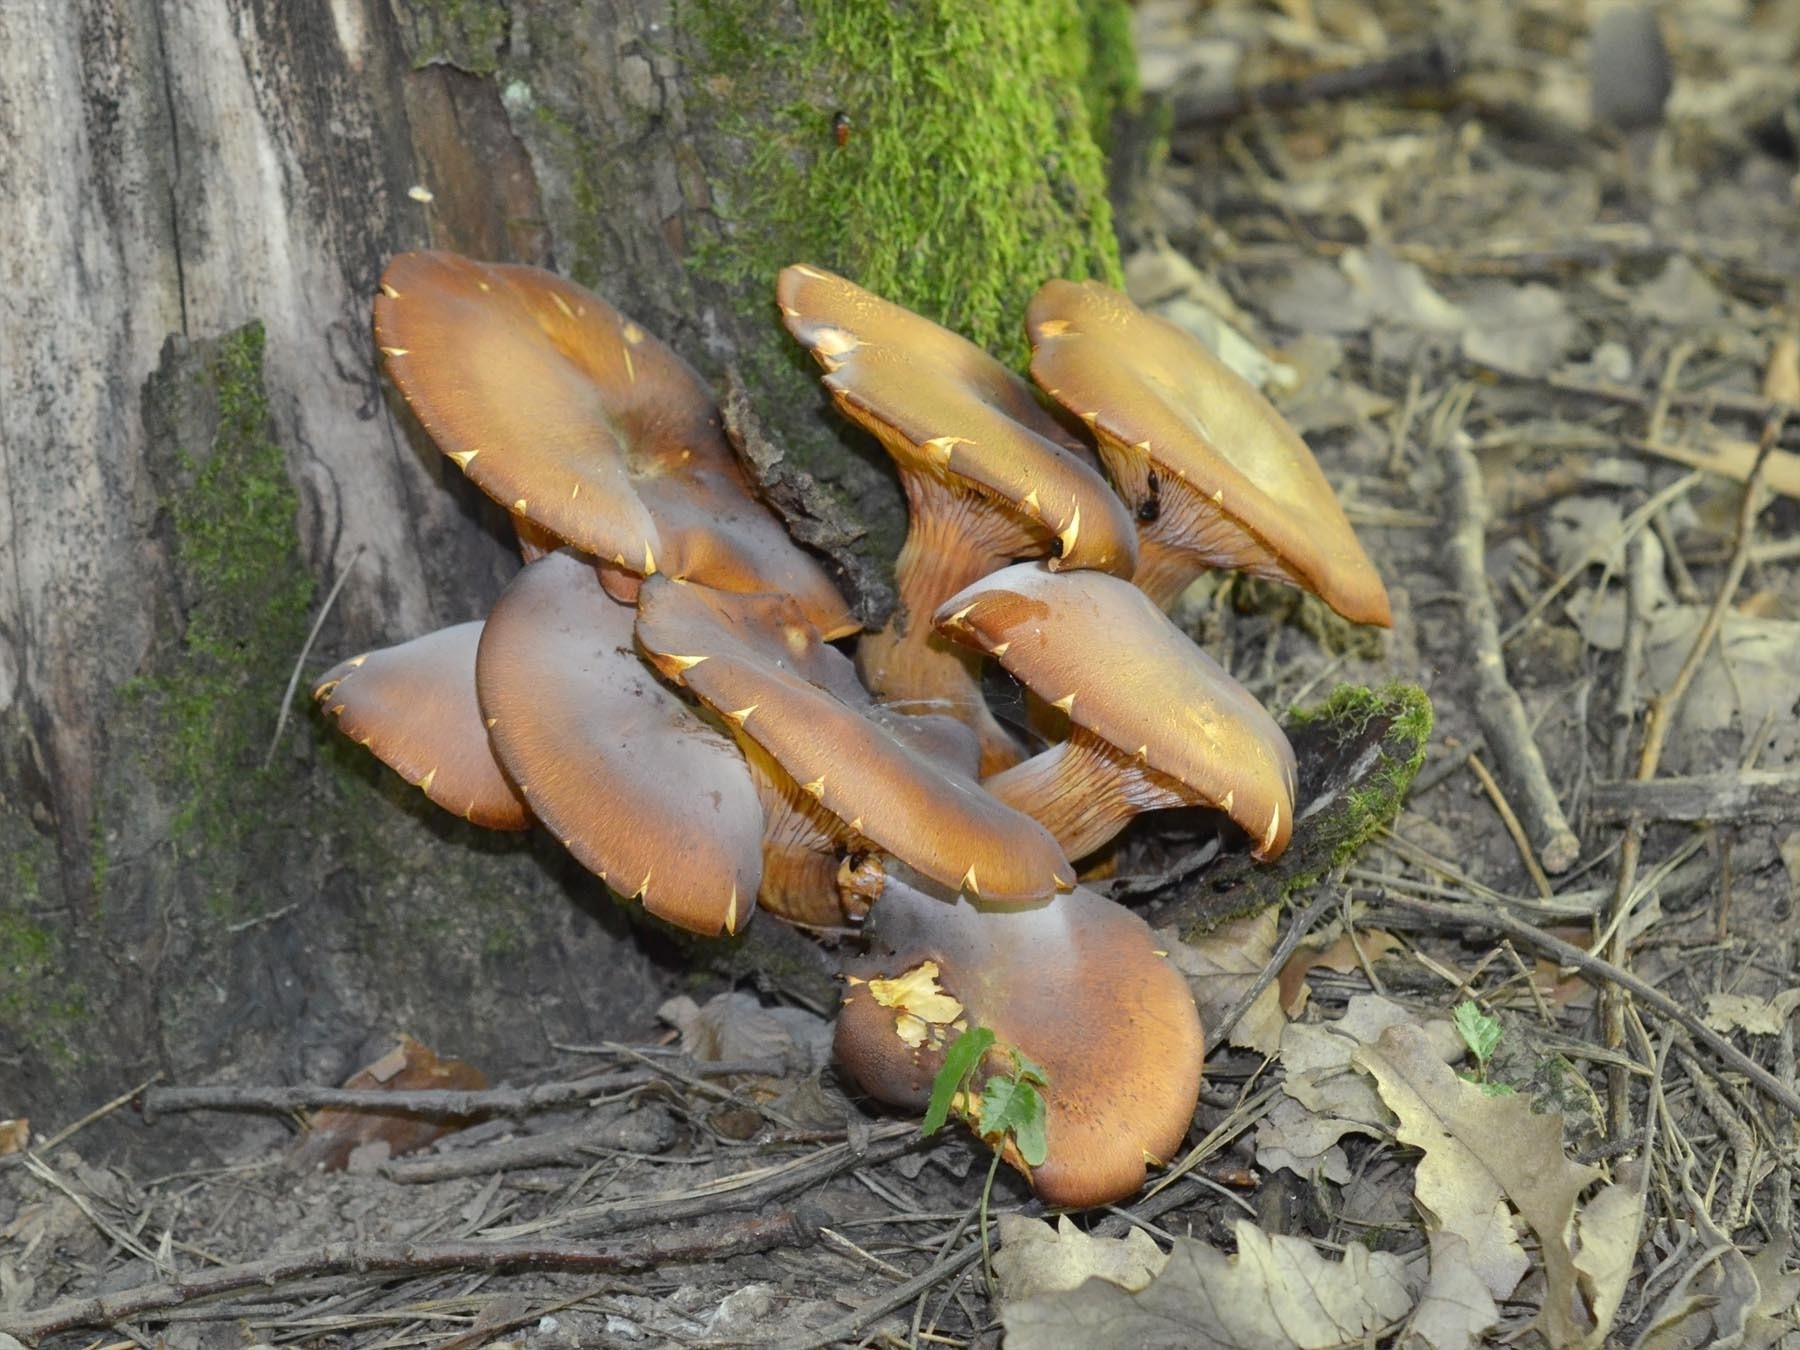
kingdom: Fungi
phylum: Basidiomycota
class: Agaricomycetes
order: Agaricales
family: Omphalotaceae
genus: Omphalotus
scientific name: Omphalotus olearius
